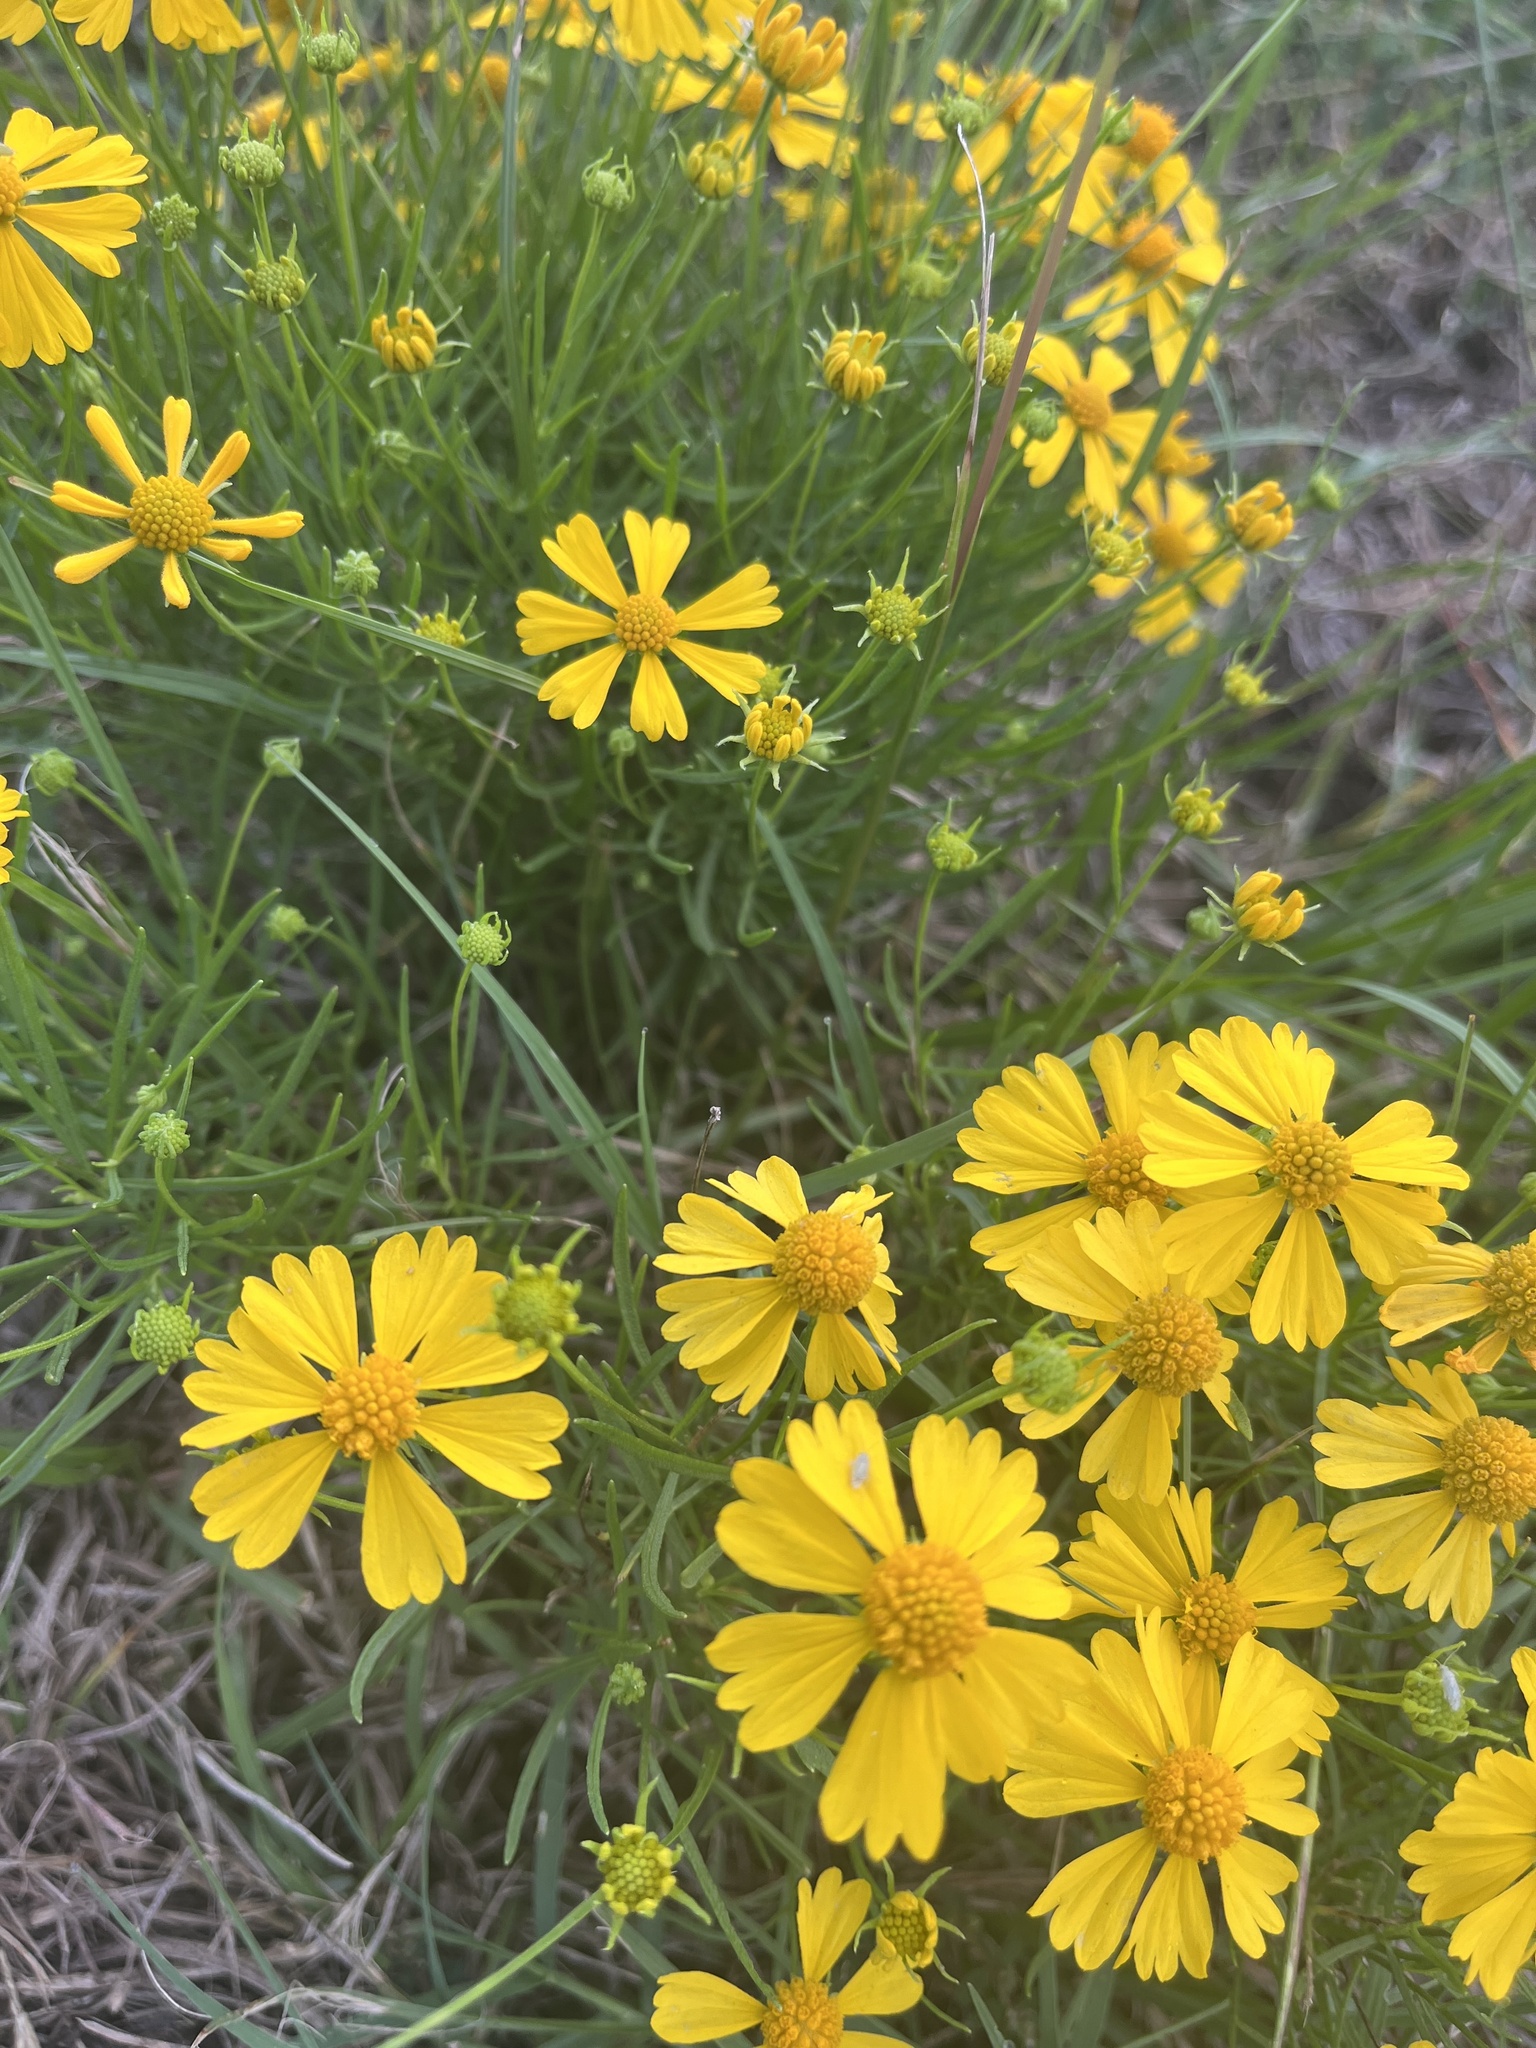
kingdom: Plantae
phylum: Tracheophyta
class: Magnoliopsida
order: Asterales
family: Asteraceae
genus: Helenium
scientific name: Helenium amarum
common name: Bitter sneezeweed
